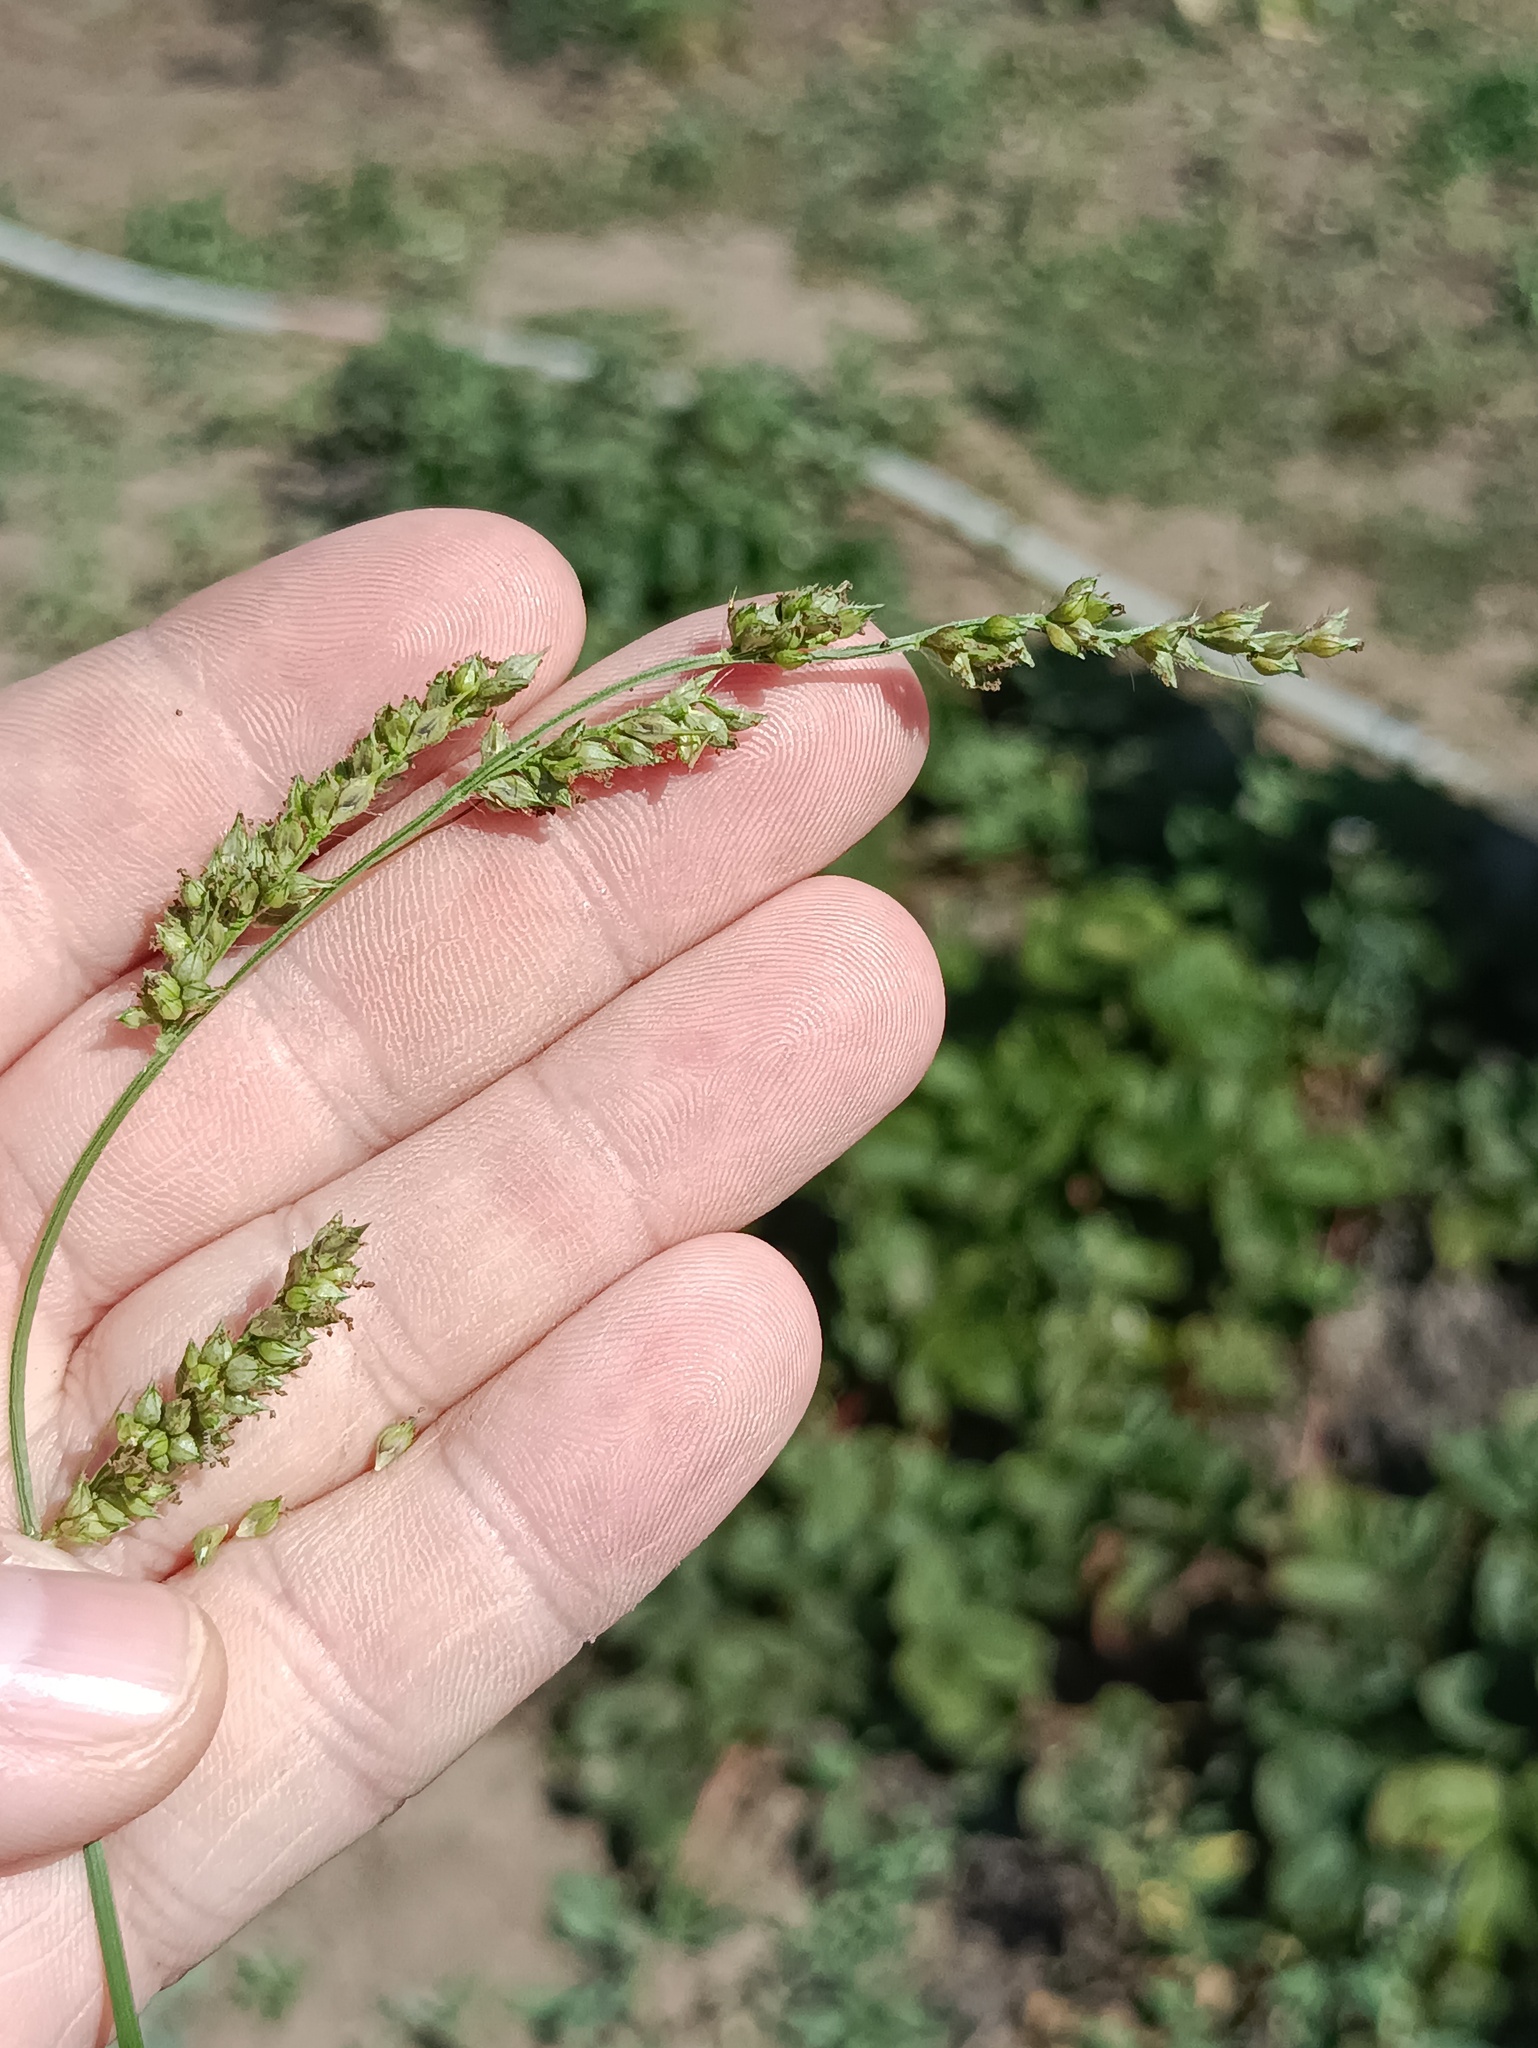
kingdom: Plantae
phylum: Tracheophyta
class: Liliopsida
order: Poales
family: Poaceae
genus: Echinochloa
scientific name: Echinochloa crus-galli
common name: Cockspur
